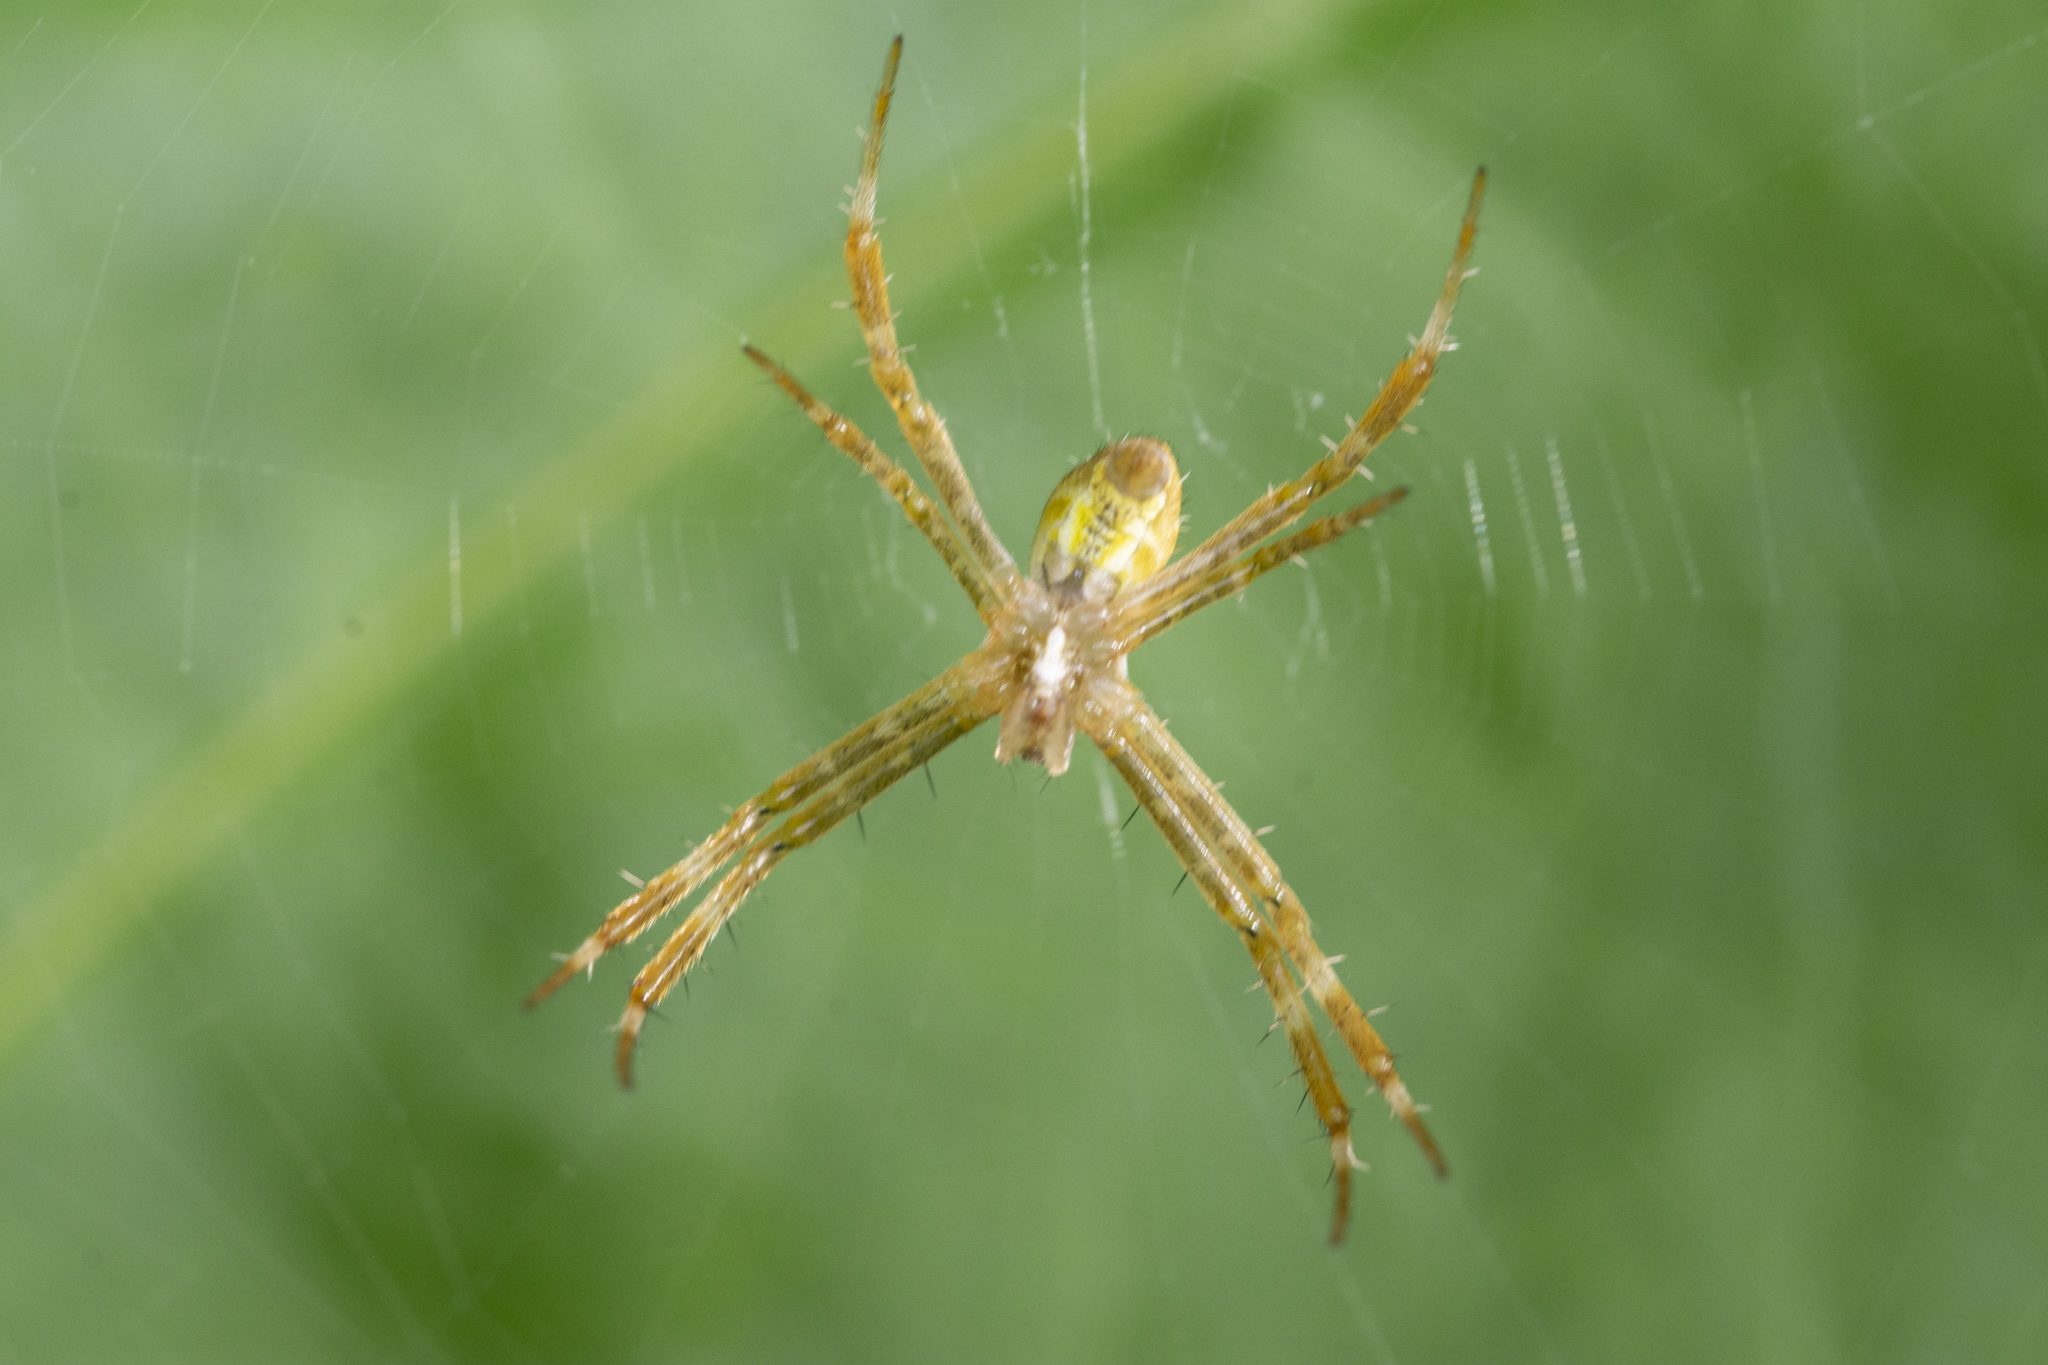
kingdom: Animalia
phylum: Arthropoda
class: Arachnida
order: Araneae
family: Araneidae
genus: Argiope
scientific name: Argiope appensa
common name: Garden spider
